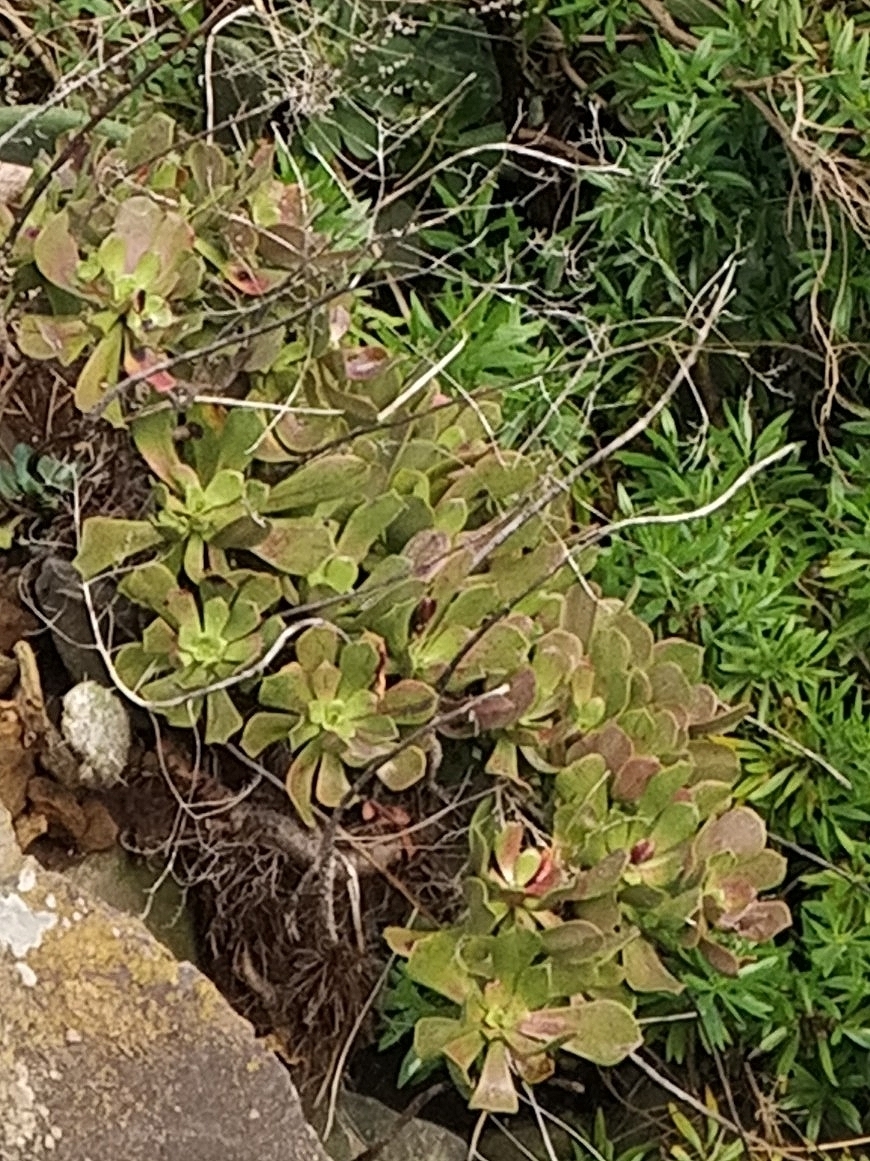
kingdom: Plantae
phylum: Tracheophyta
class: Magnoliopsida
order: Saxifragales
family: Crassulaceae
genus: Aeonium
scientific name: Aeonium glutinosum
